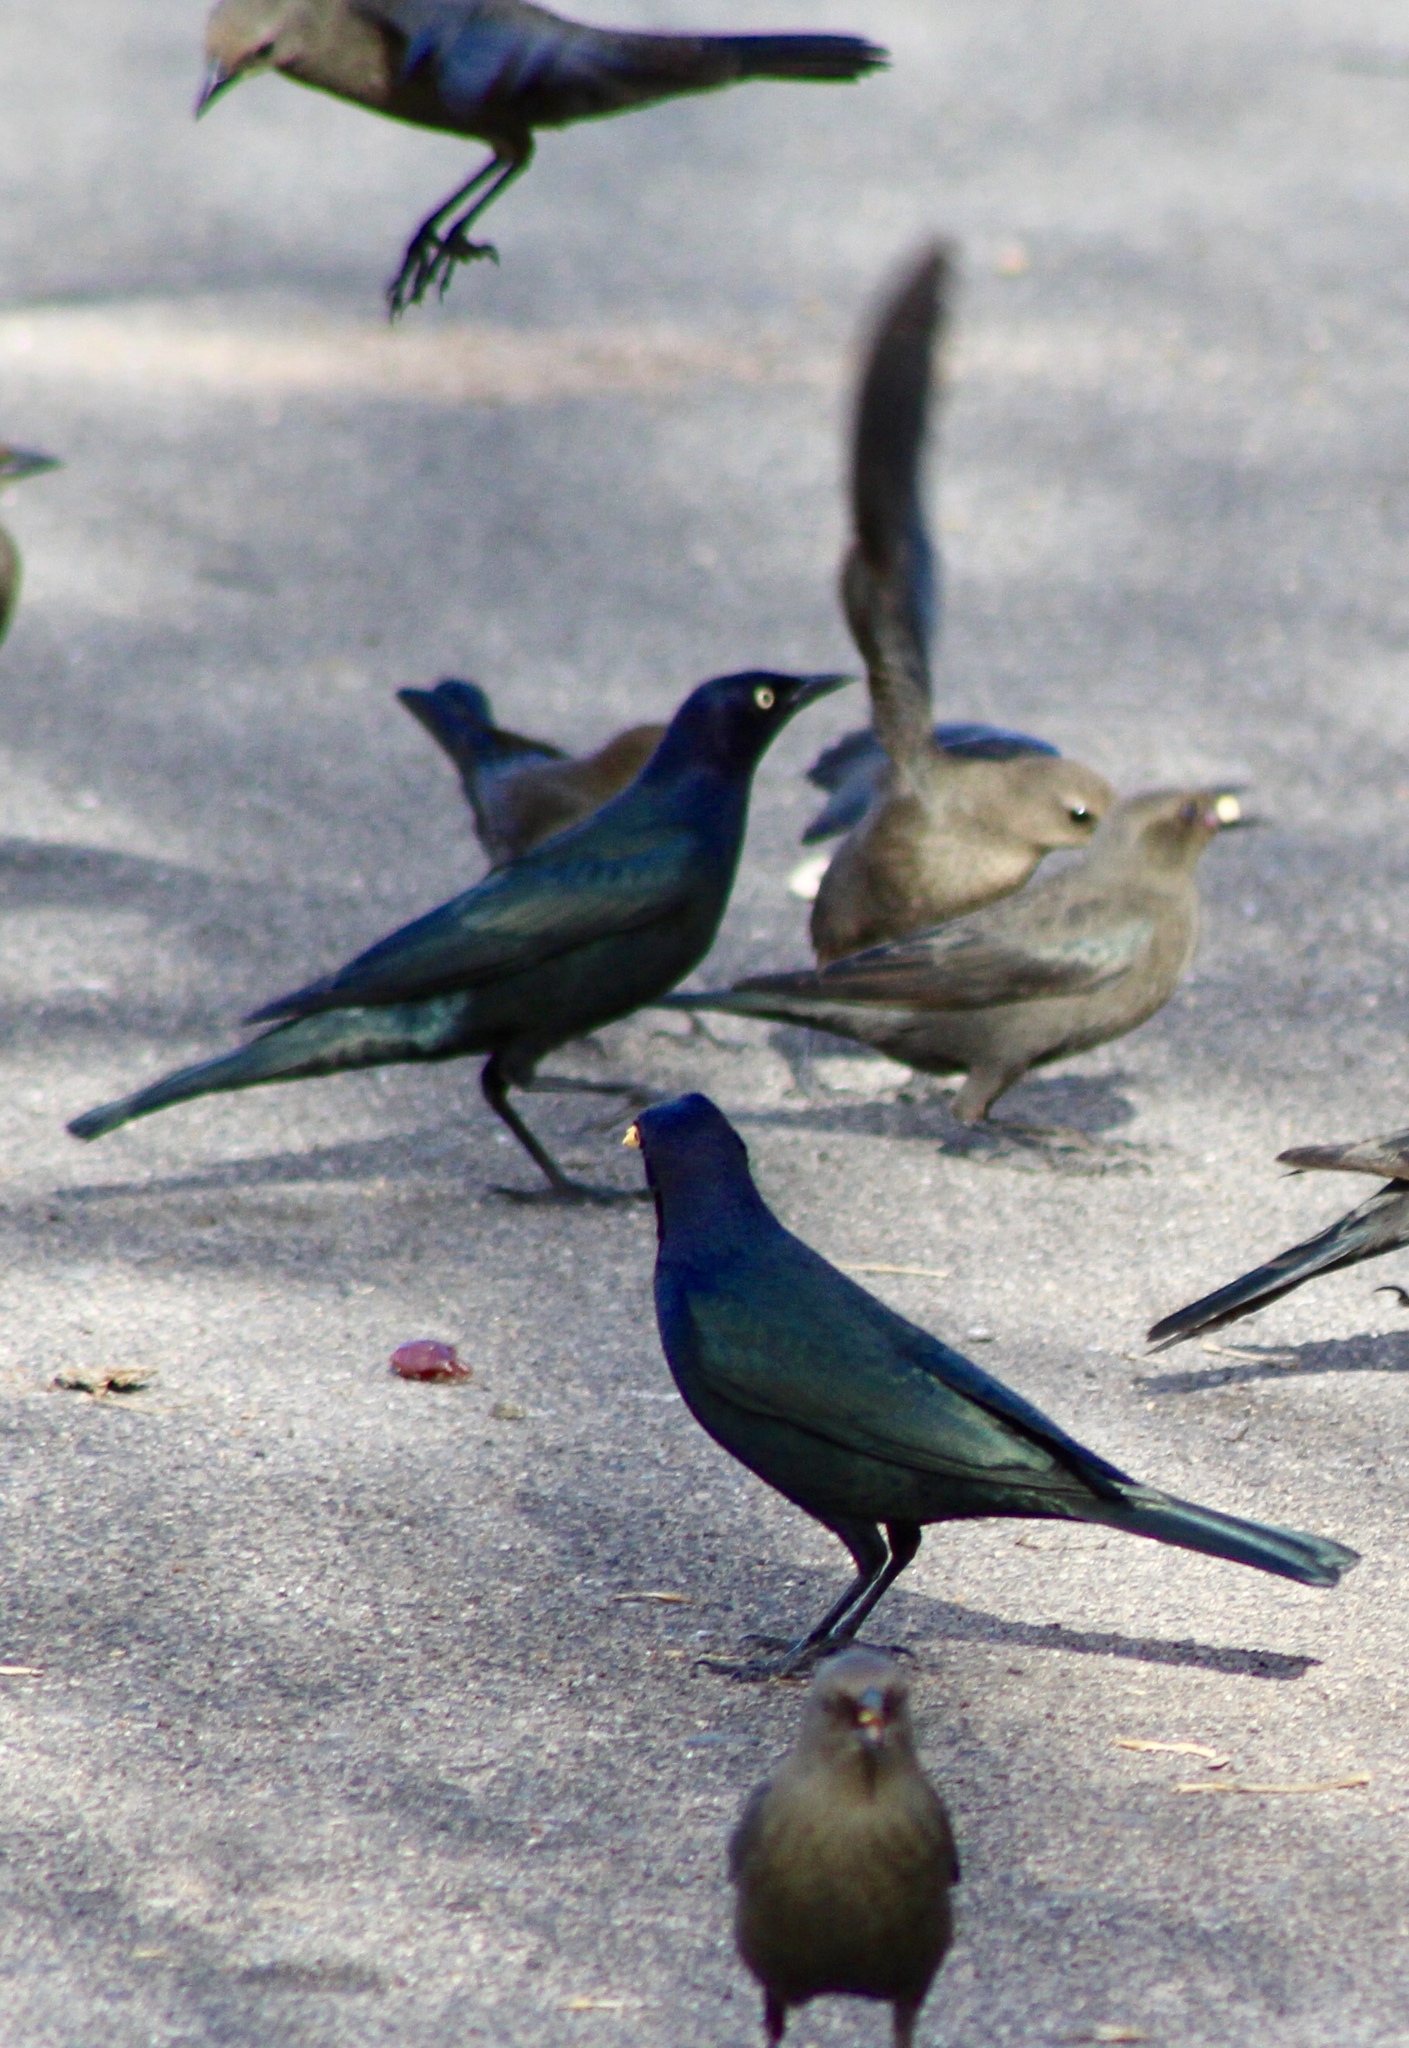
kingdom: Animalia
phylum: Chordata
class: Aves
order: Passeriformes
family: Icteridae
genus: Euphagus
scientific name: Euphagus cyanocephalus
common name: Brewer's blackbird
